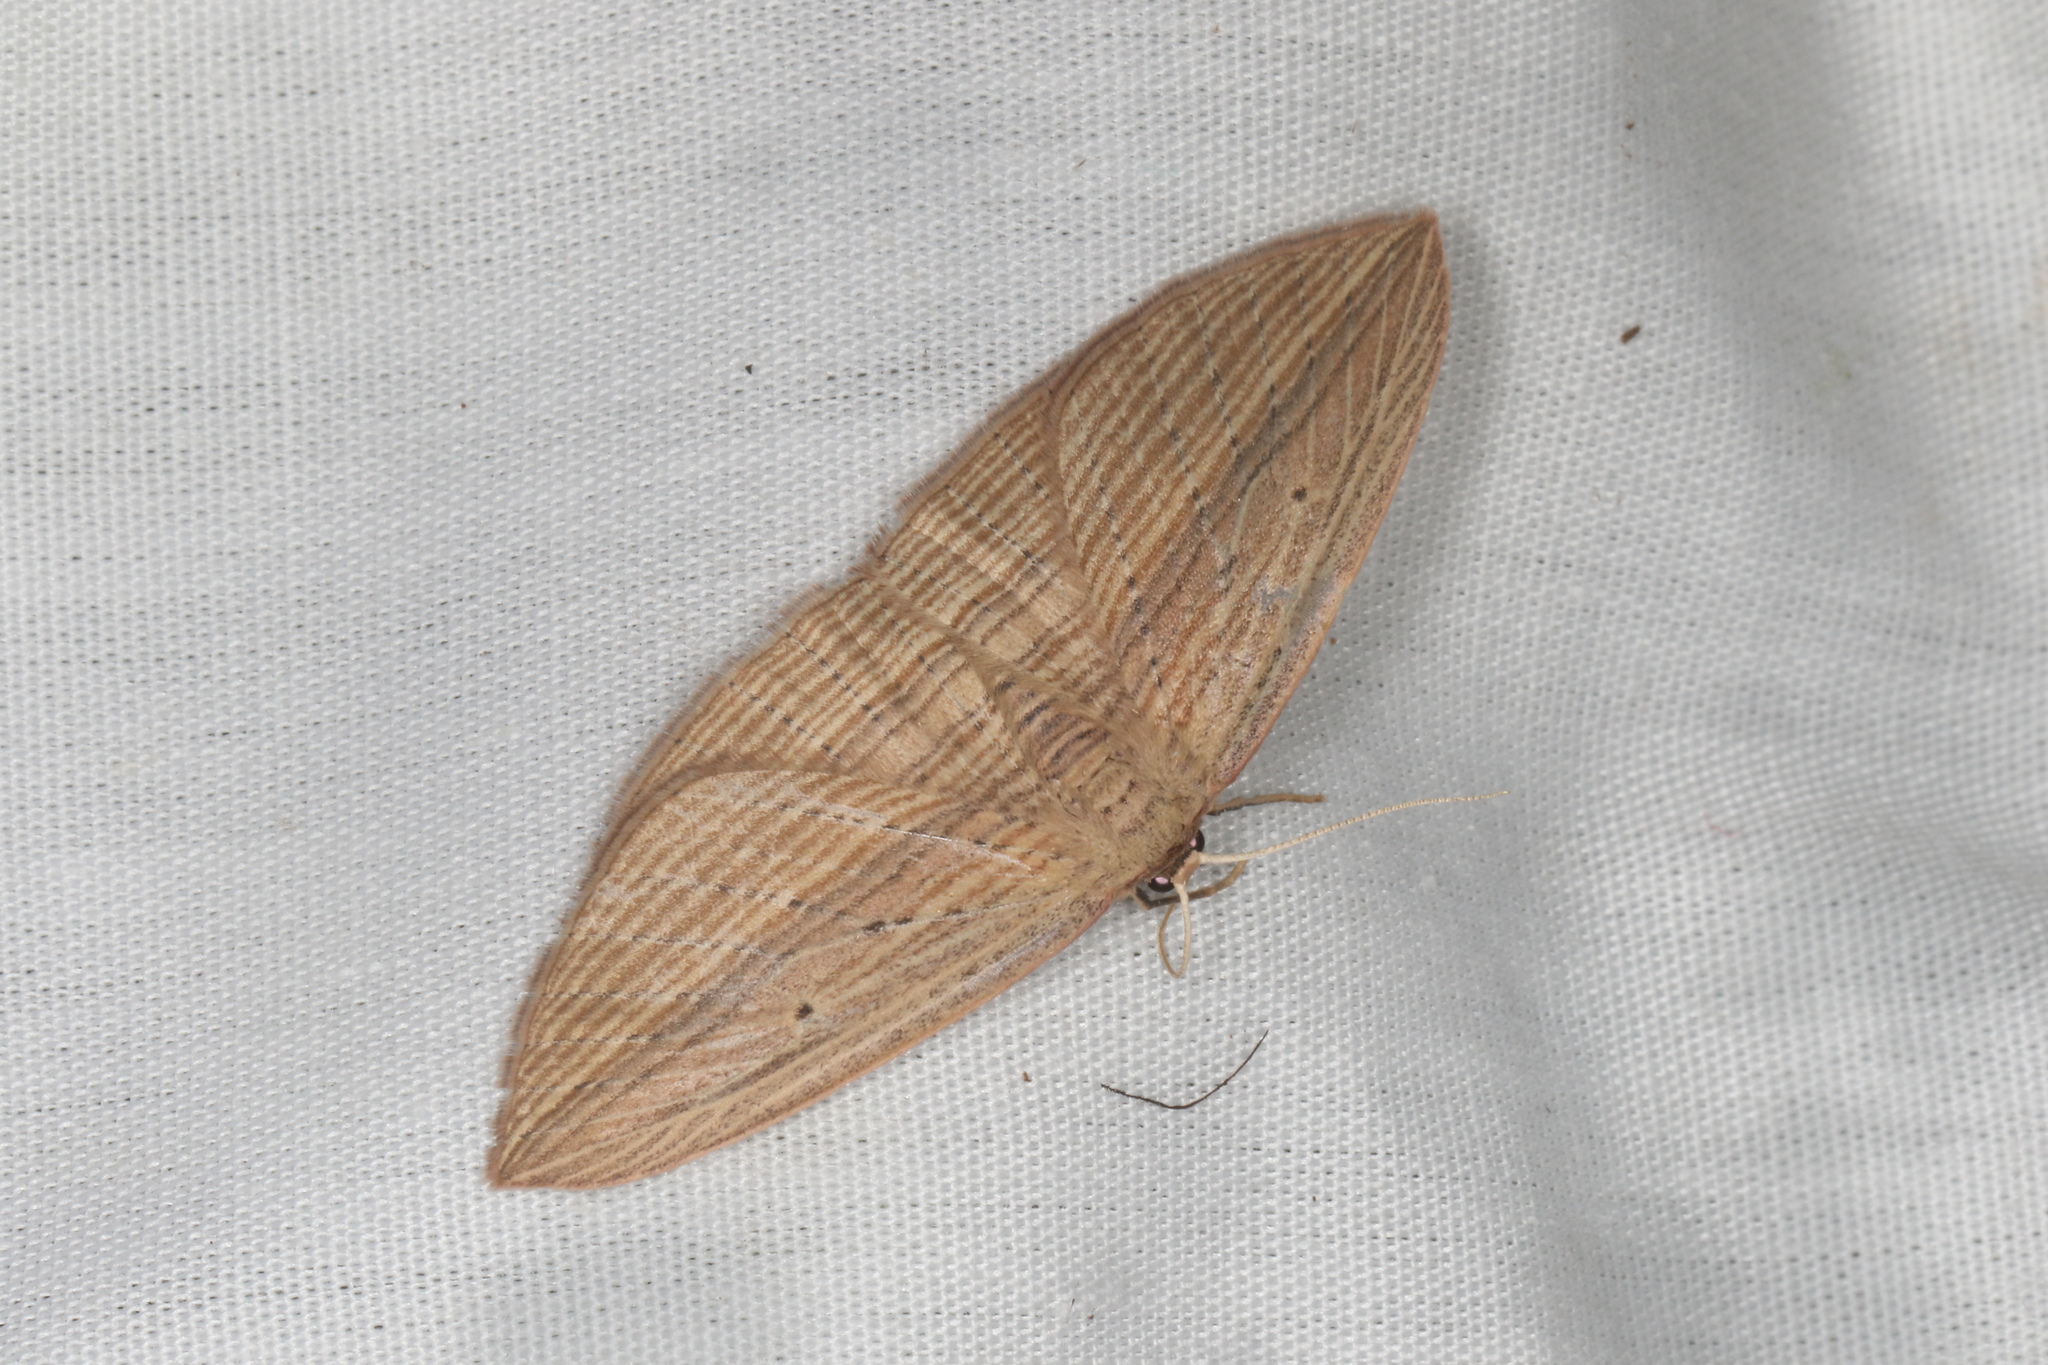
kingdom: Animalia
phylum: Arthropoda
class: Insecta
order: Lepidoptera
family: Geometridae
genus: Epiphryne
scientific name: Epiphryne verriculata
